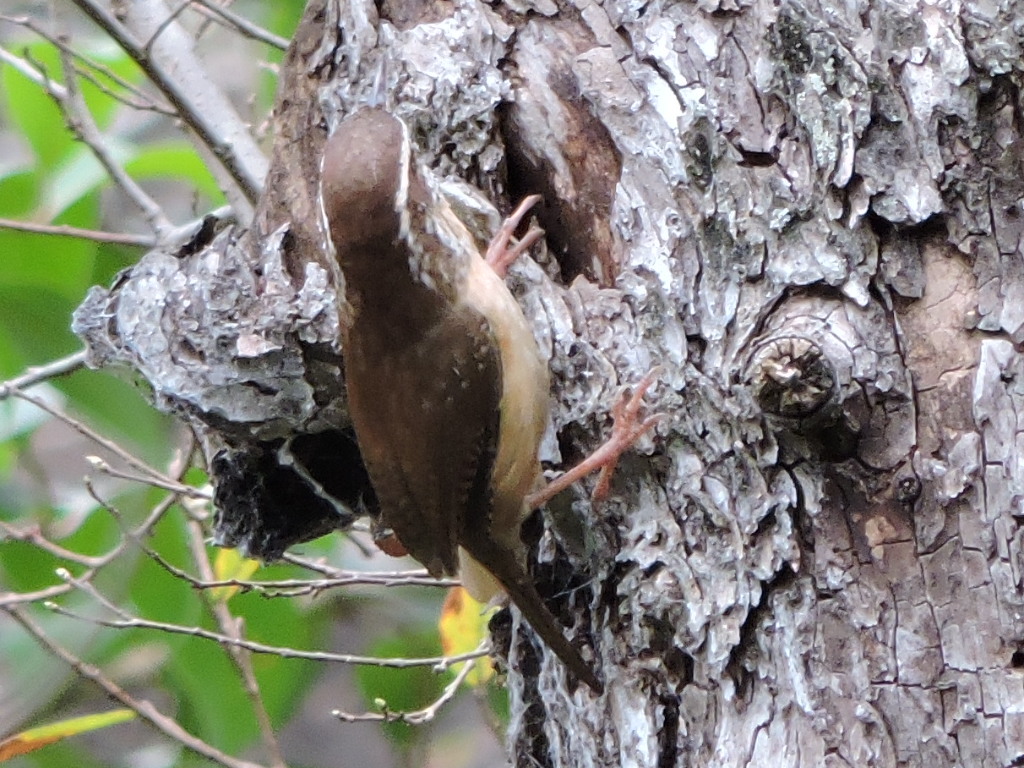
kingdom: Animalia
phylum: Chordata
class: Aves
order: Passeriformes
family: Troglodytidae
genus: Thryothorus
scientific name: Thryothorus ludovicianus
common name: Carolina wren
